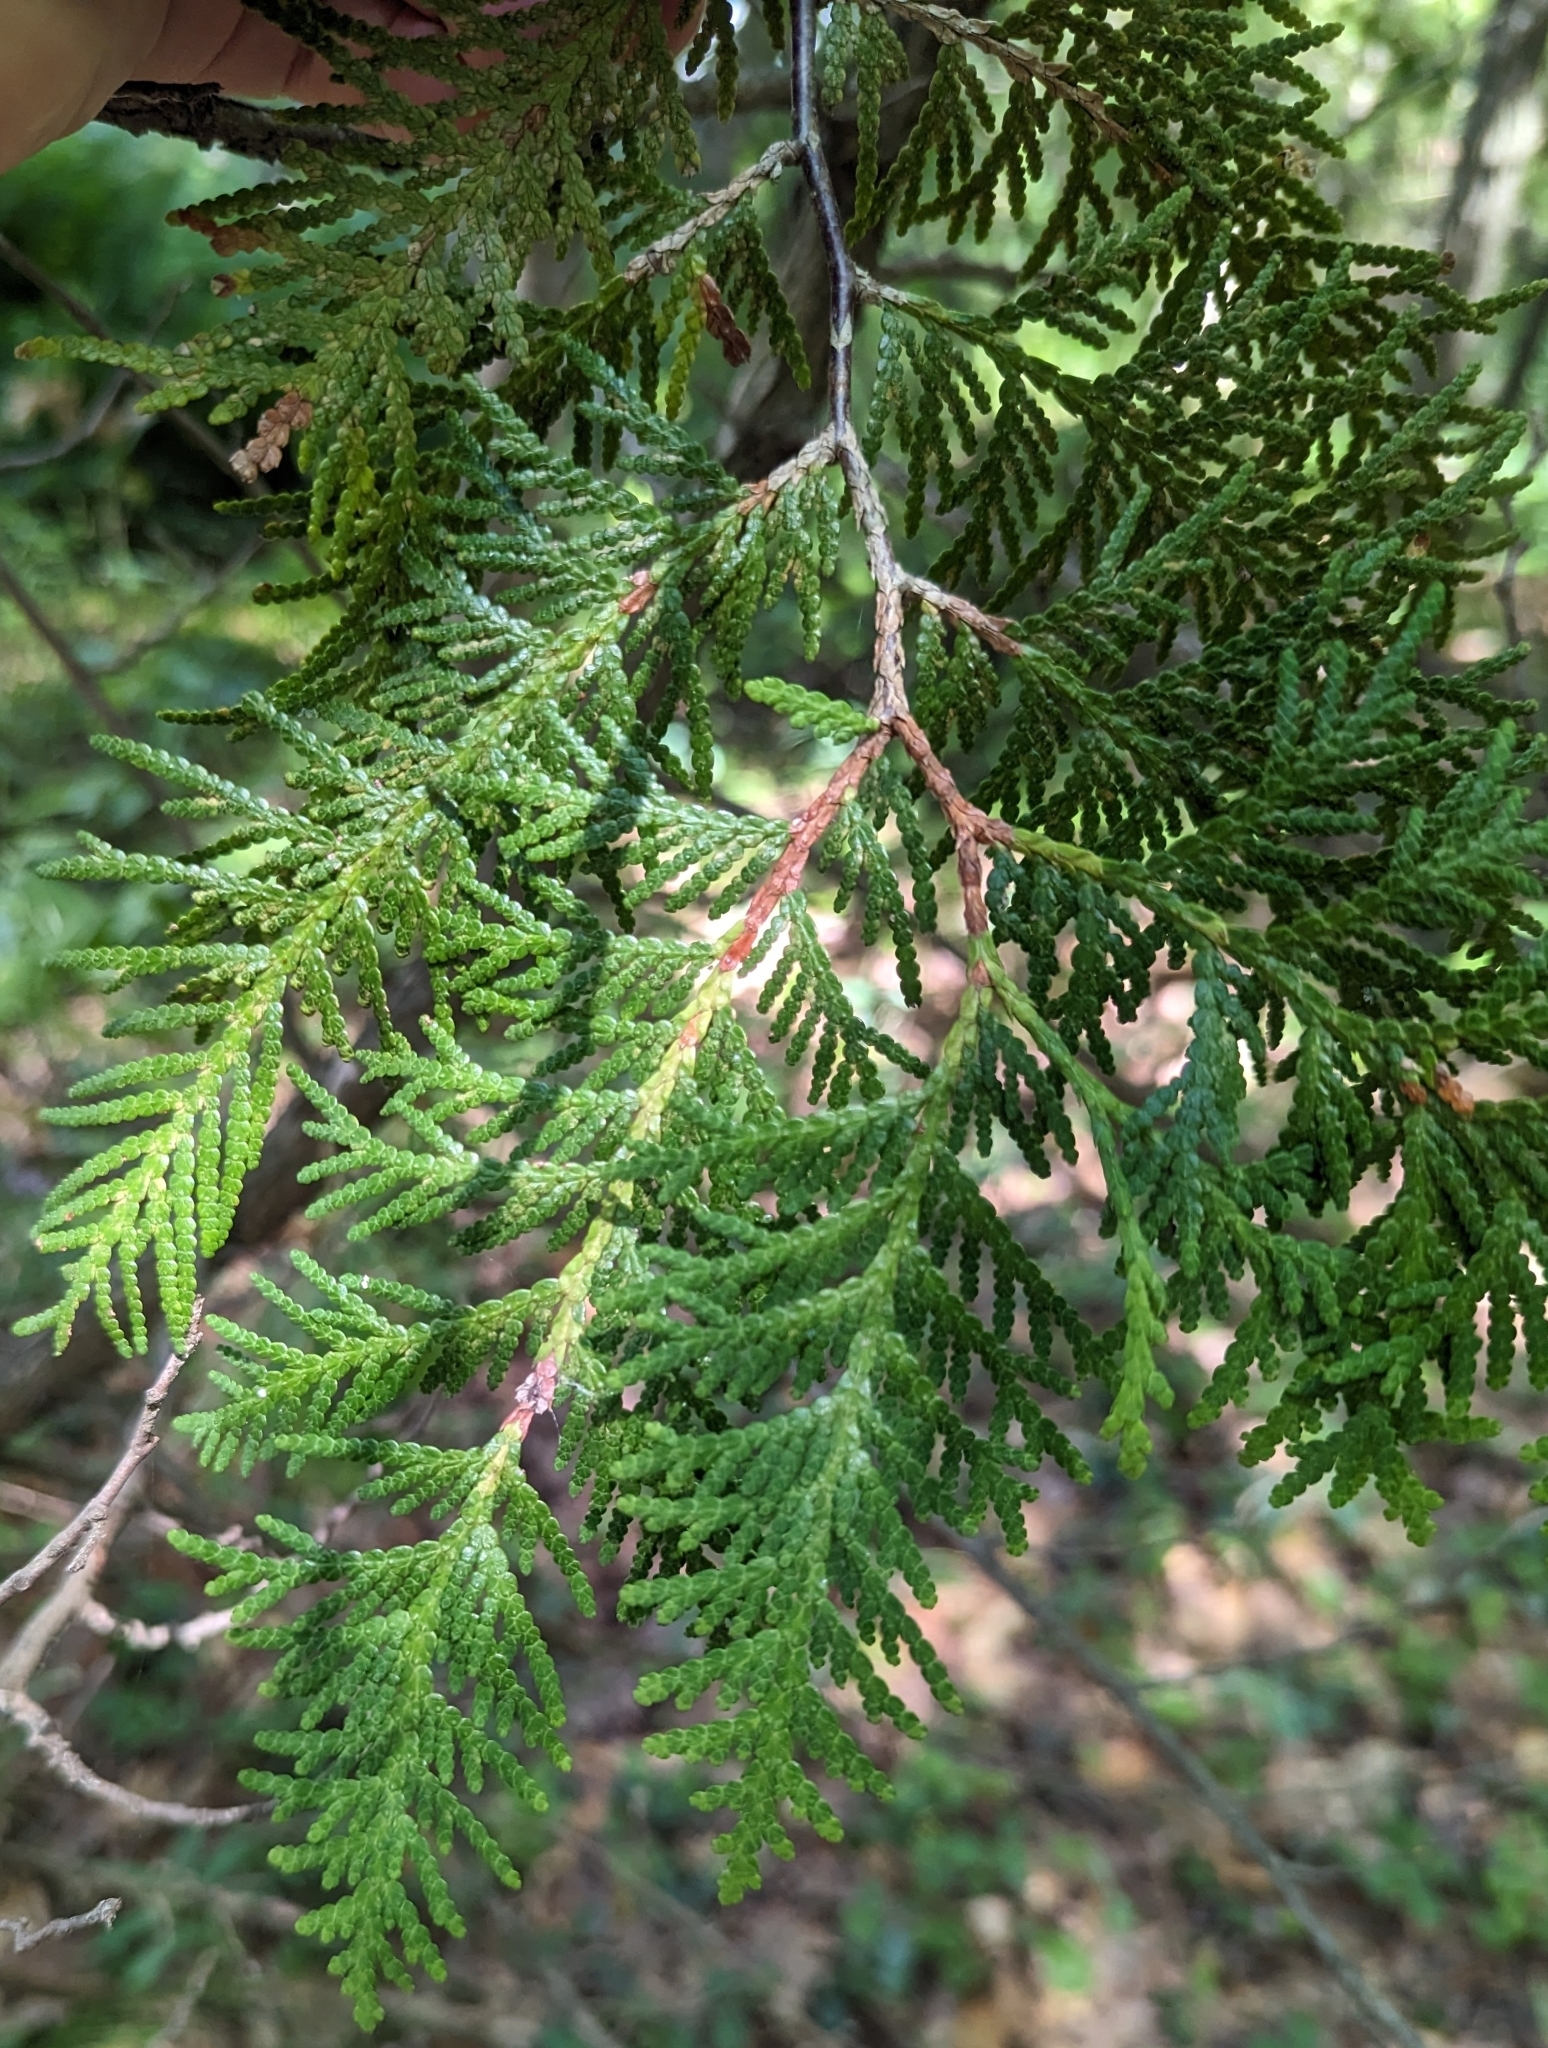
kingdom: Plantae
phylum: Tracheophyta
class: Pinopsida
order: Pinales
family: Cupressaceae
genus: Thuja
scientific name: Thuja occidentalis
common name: Northern white-cedar
